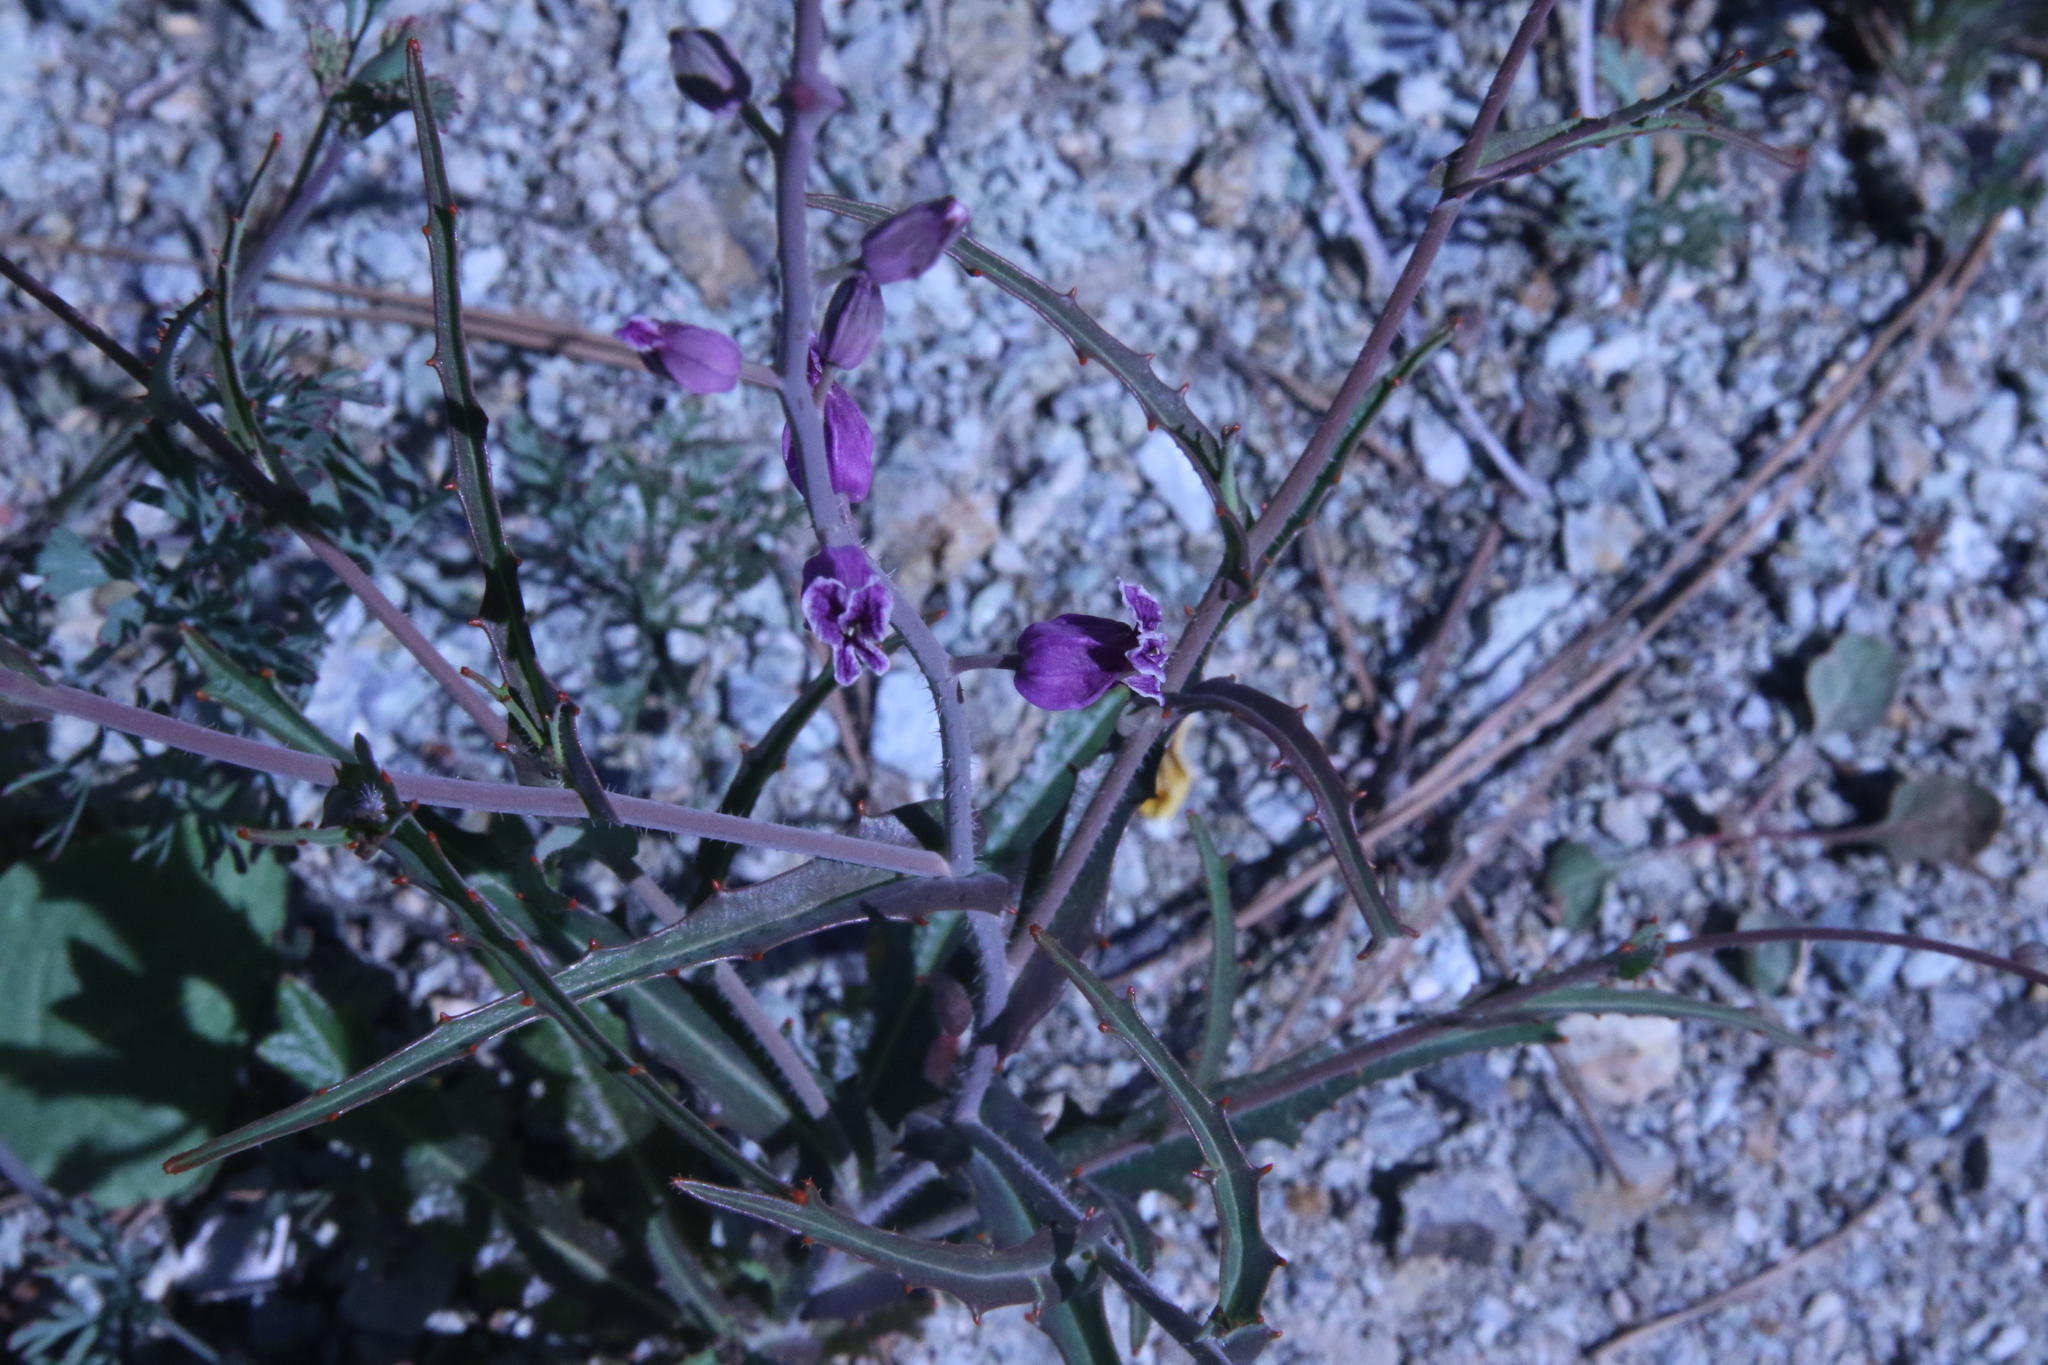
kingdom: Plantae
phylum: Tracheophyta
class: Magnoliopsida
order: Brassicales
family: Brassicaceae
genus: Streptanthus
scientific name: Streptanthus glandulosus
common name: Jewel-flower
